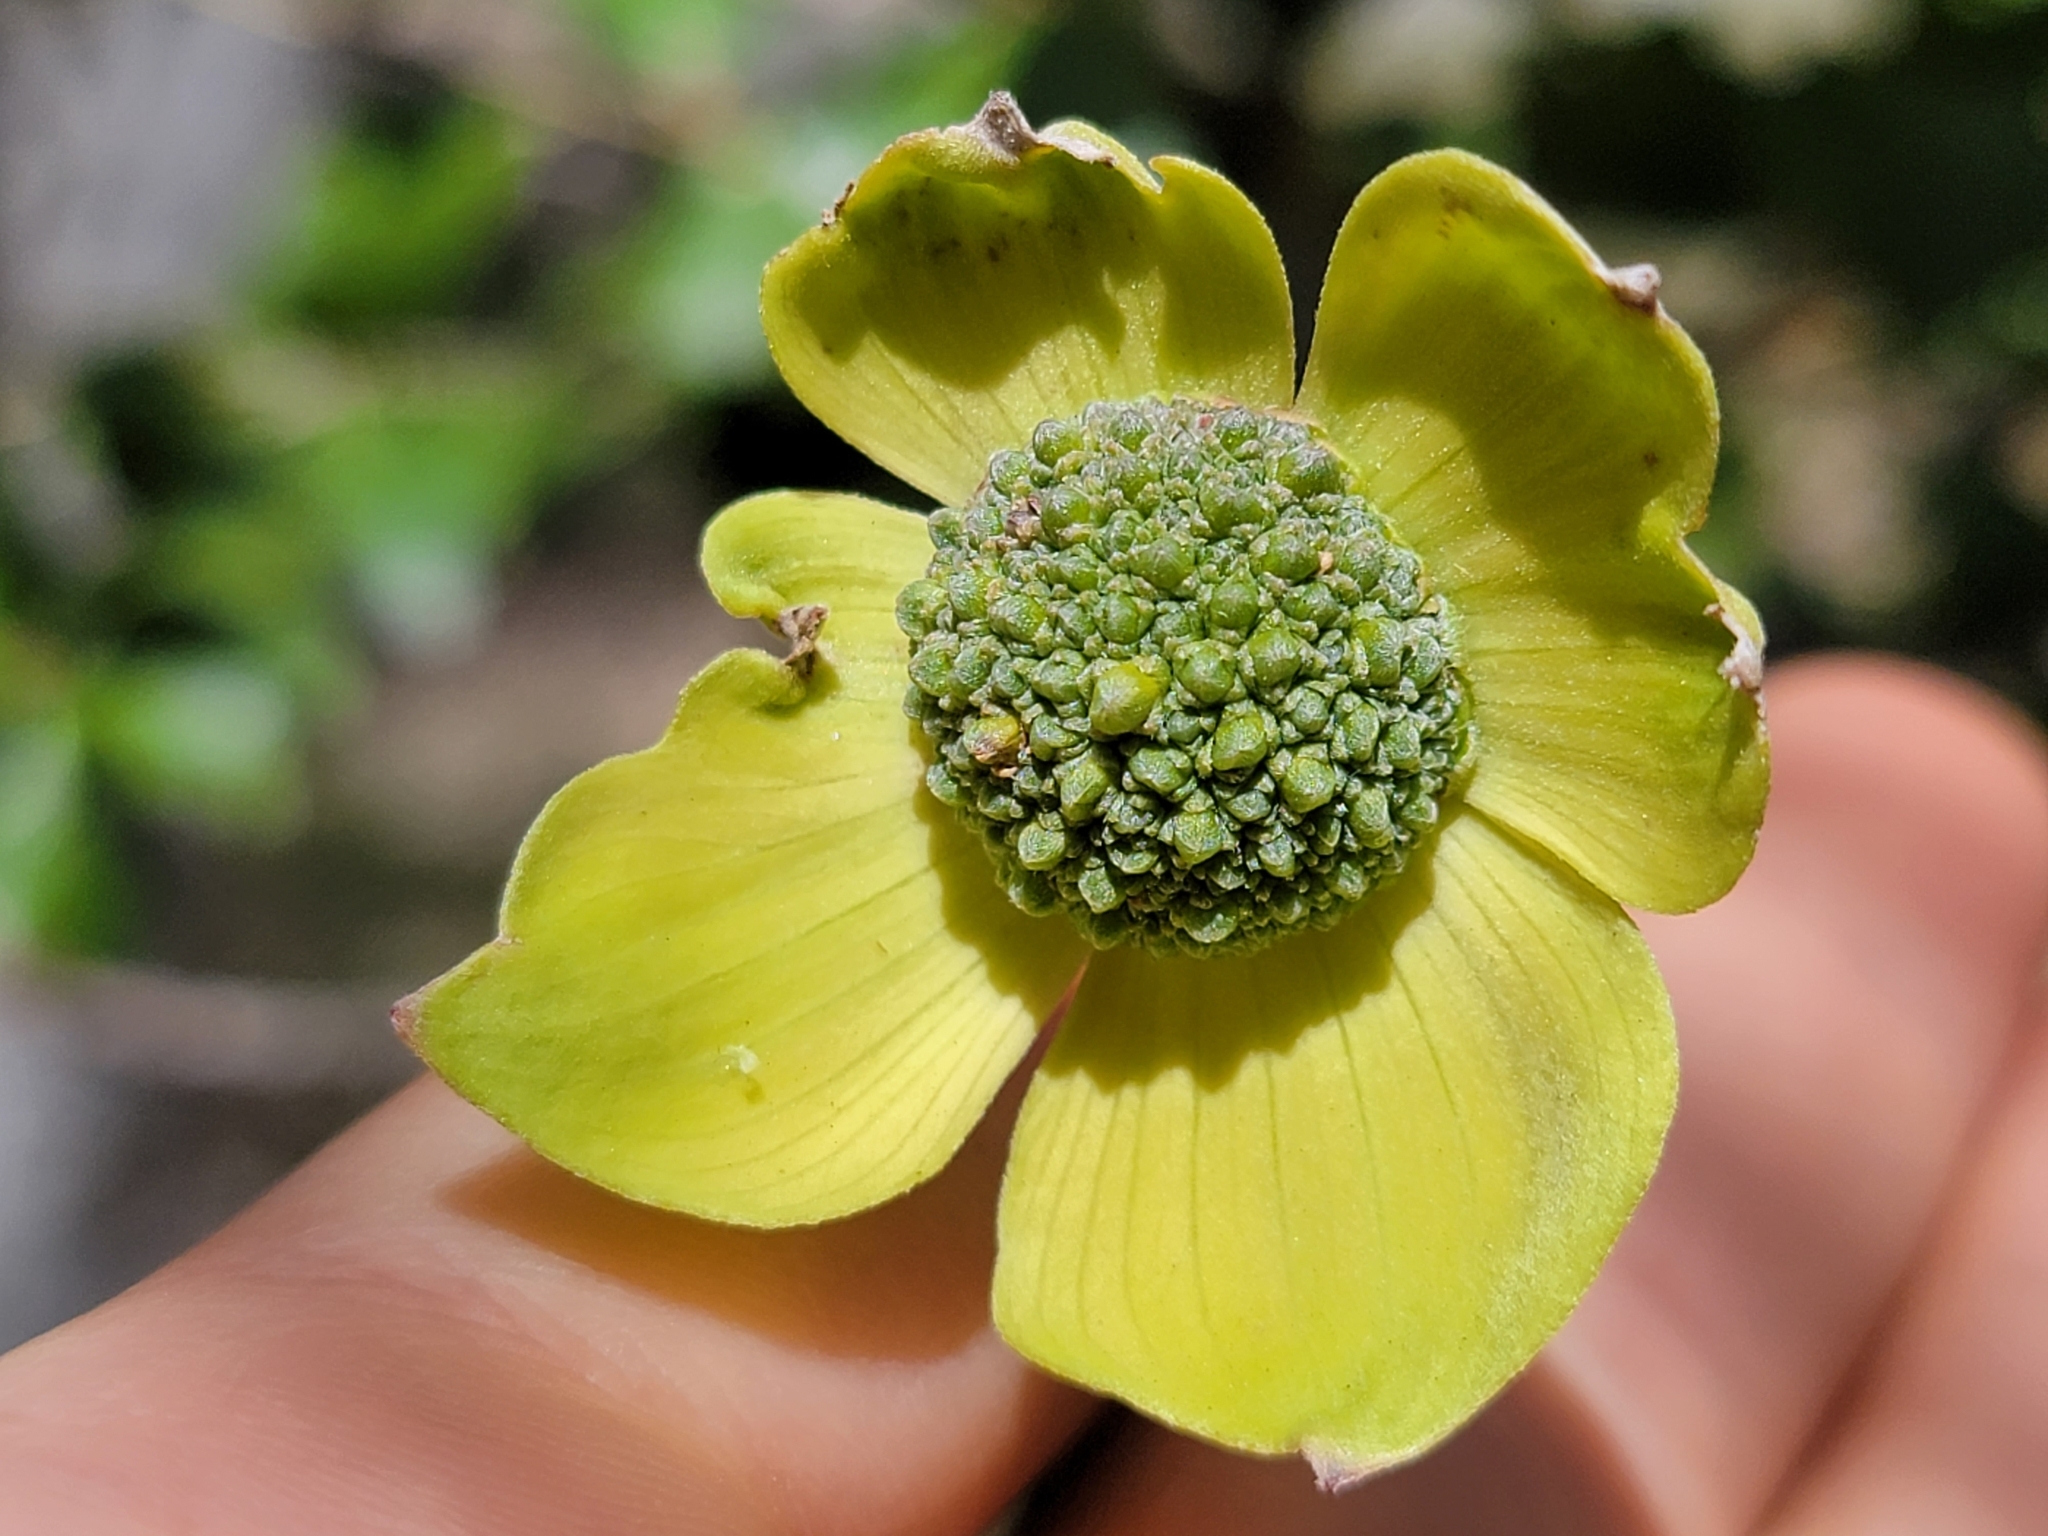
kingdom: Plantae
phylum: Tracheophyta
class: Magnoliopsida
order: Cornales
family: Cornaceae
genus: Cornus
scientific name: Cornus nuttallii
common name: Pacific dogwood
